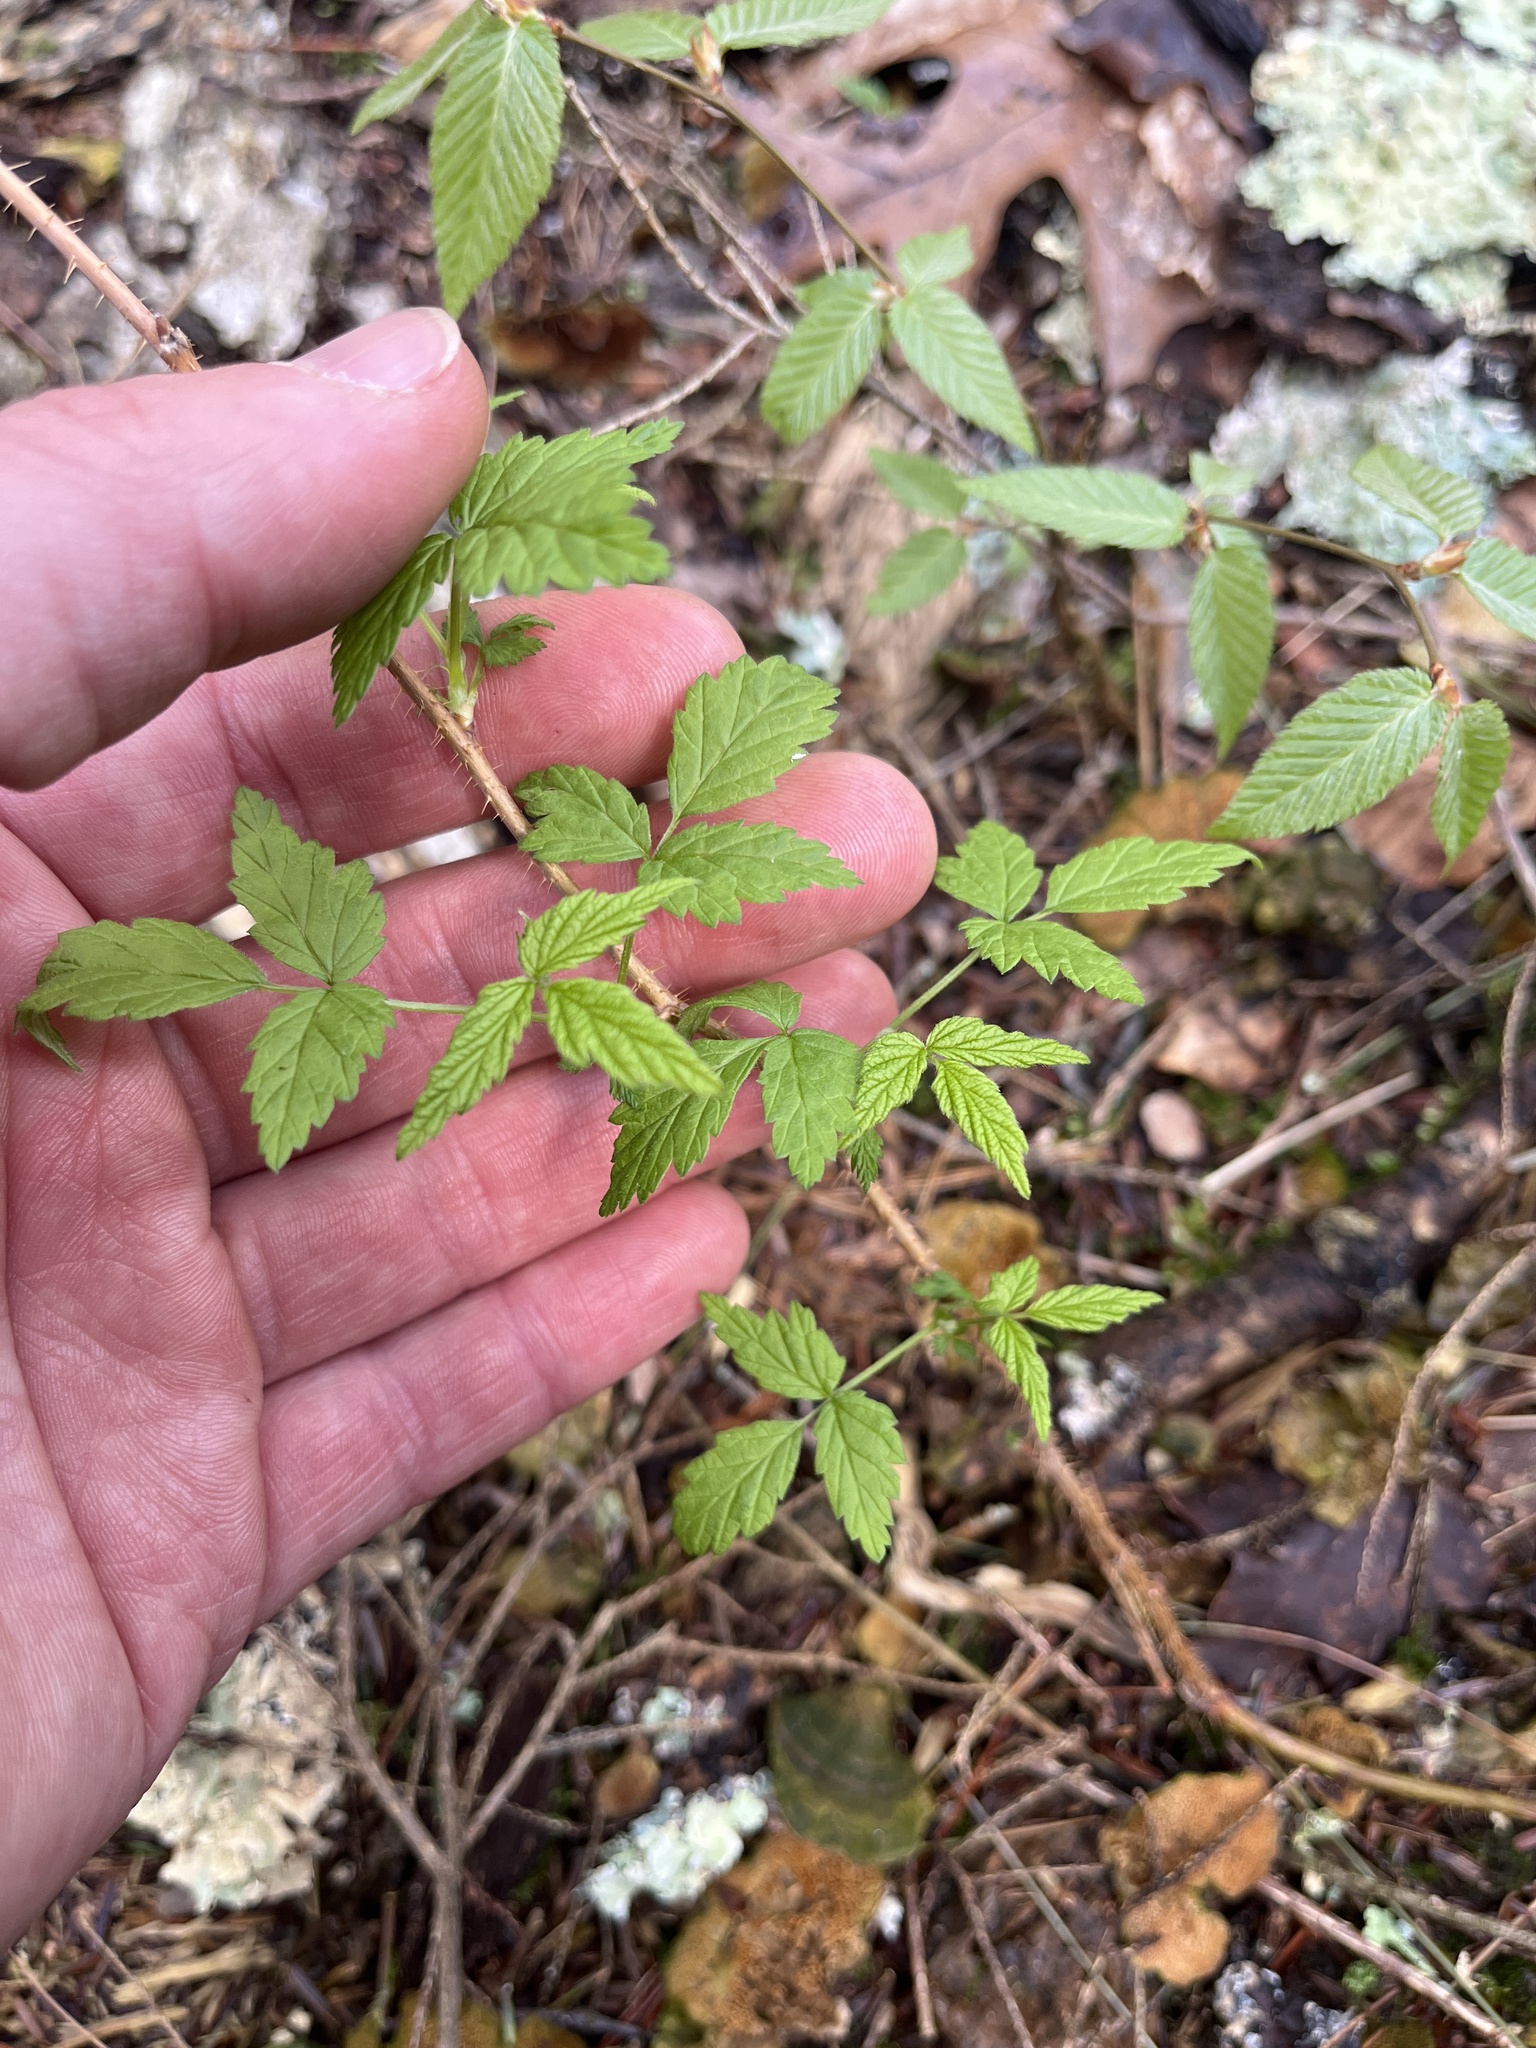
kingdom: Plantae
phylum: Tracheophyta
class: Magnoliopsida
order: Rosales
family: Rosaceae
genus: Rubus
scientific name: Rubus idaeus
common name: Raspberry
